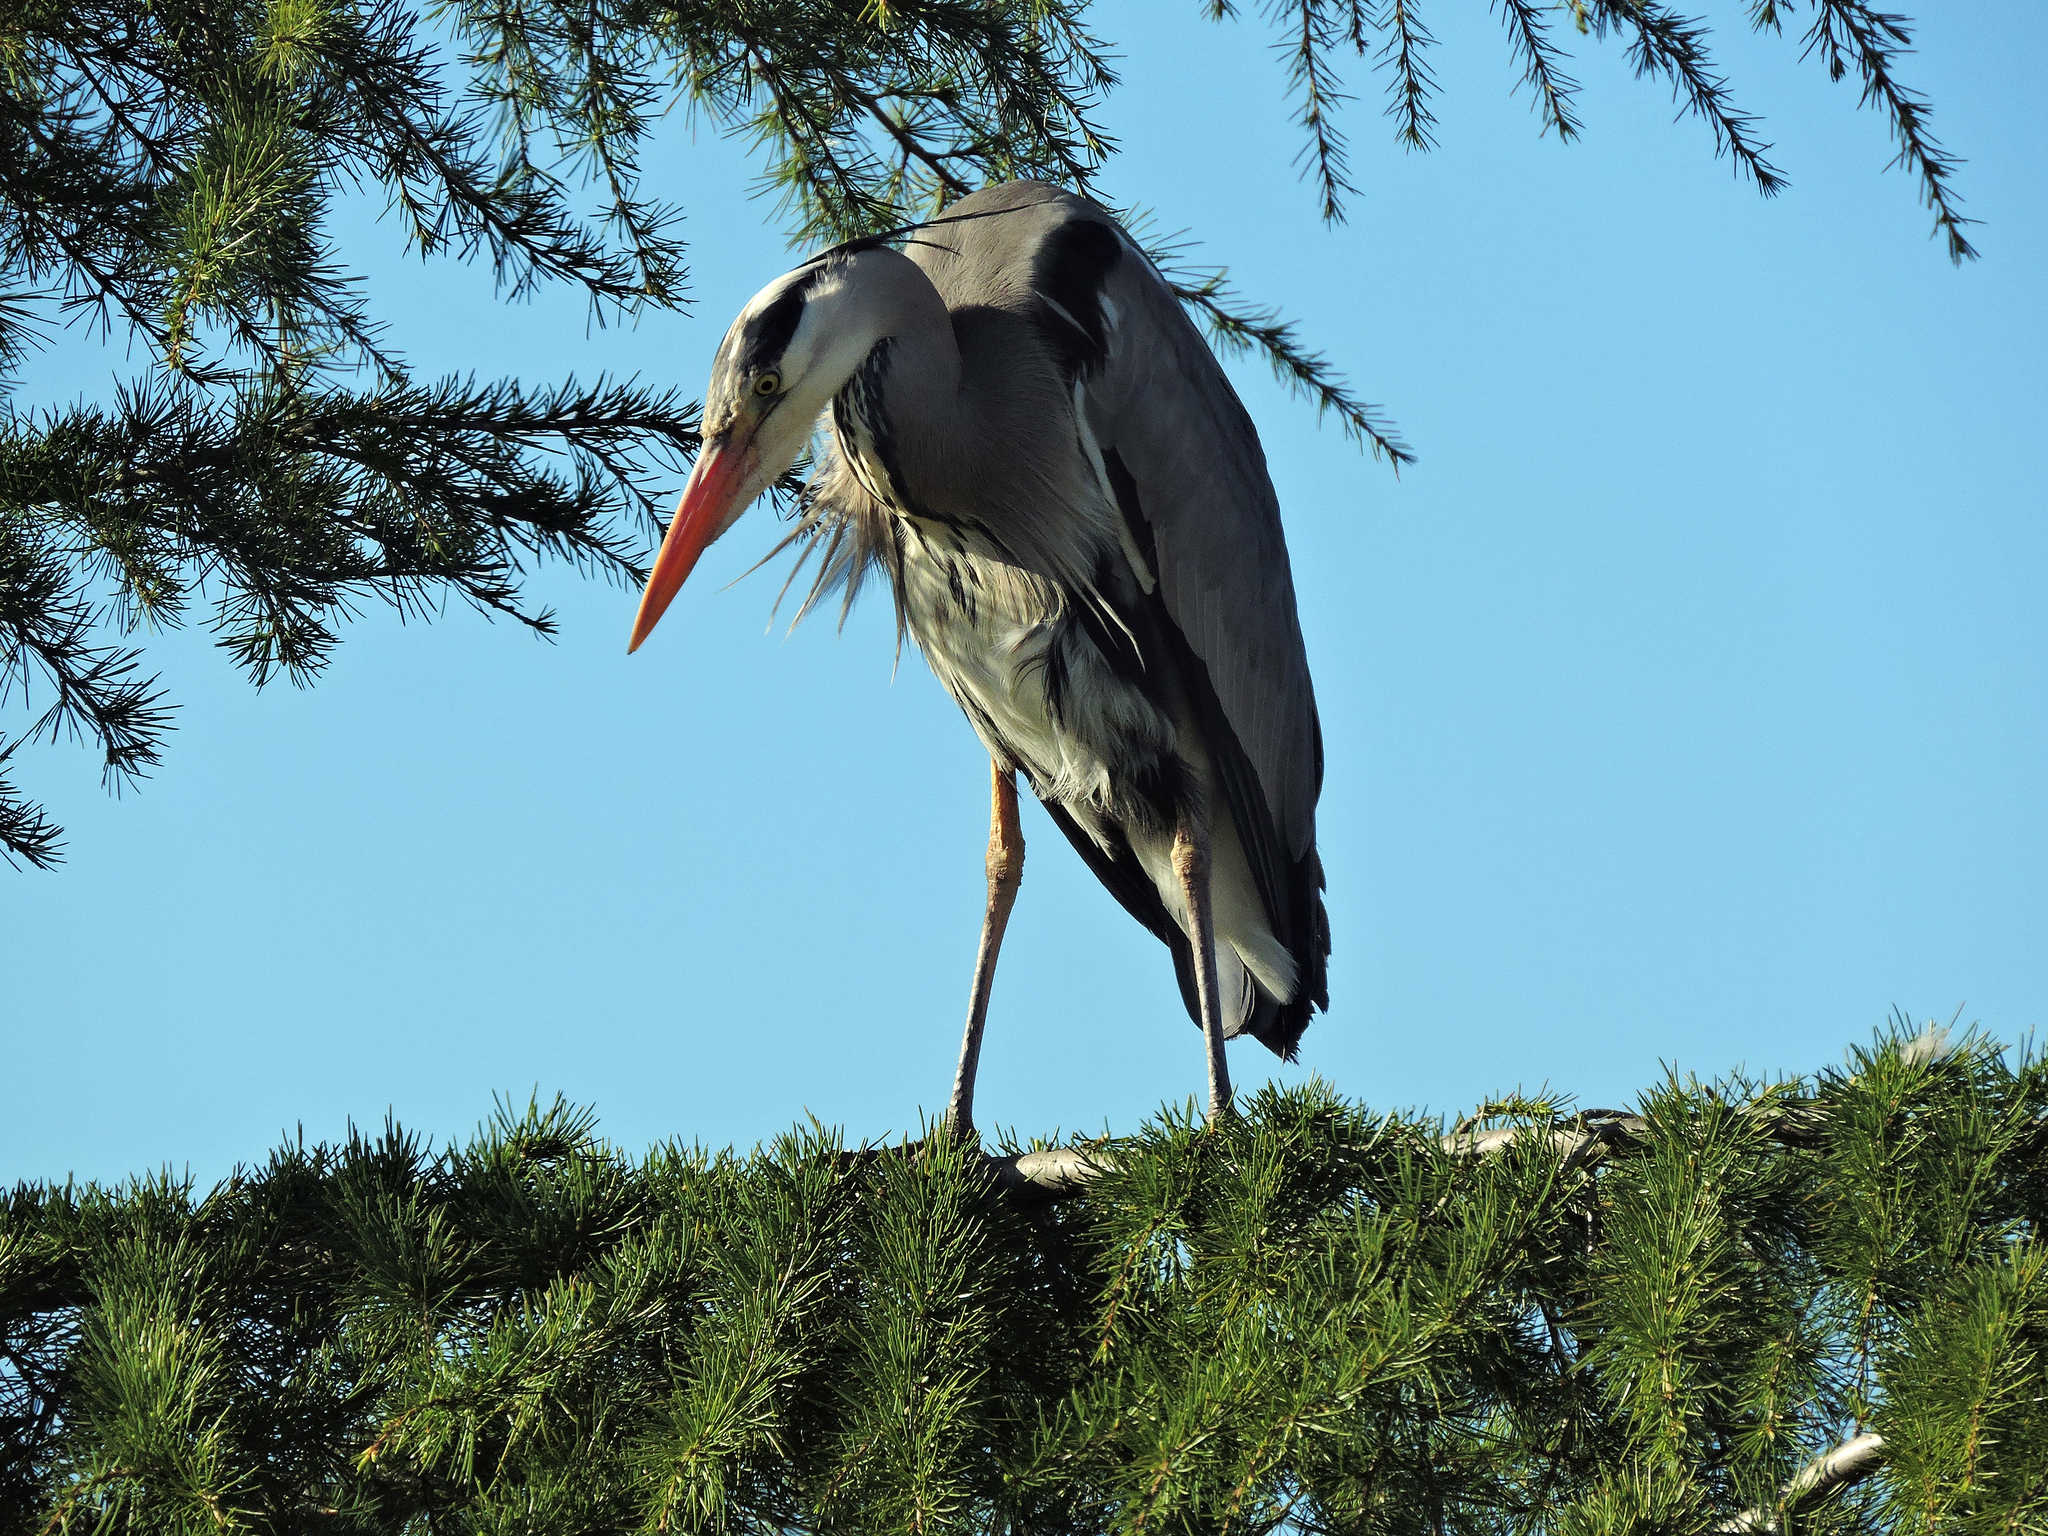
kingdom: Animalia
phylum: Chordata
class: Aves
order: Pelecaniformes
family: Ardeidae
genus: Ardea
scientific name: Ardea cinerea
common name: Grey heron
